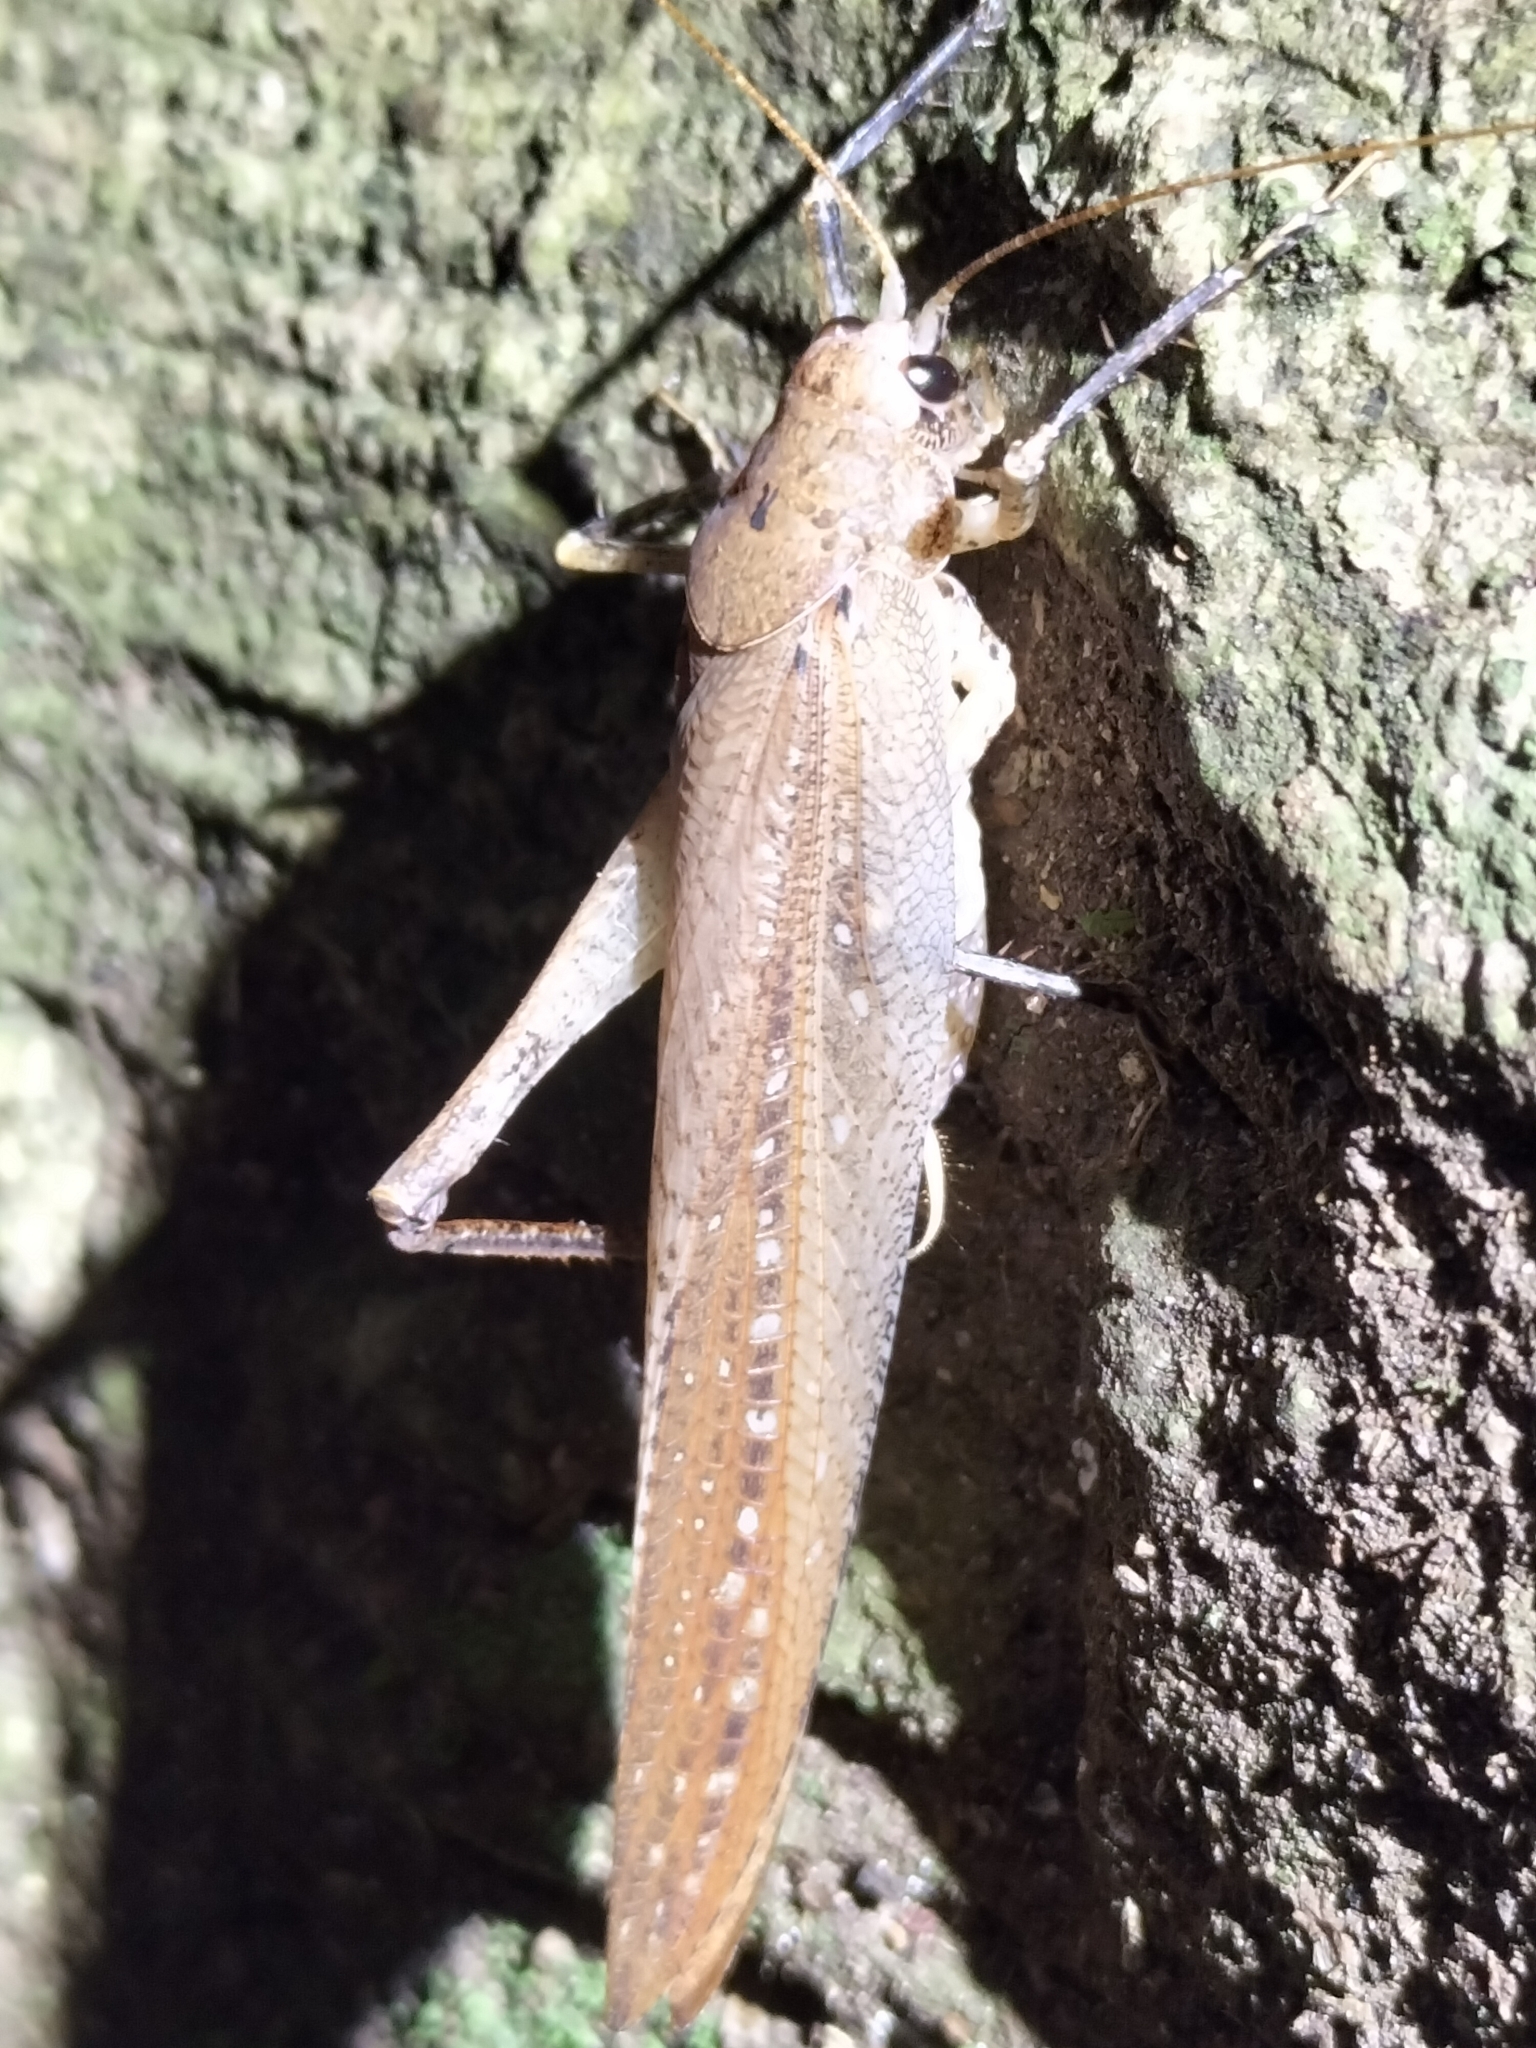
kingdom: Animalia
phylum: Arthropoda
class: Insecta
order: Orthoptera
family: Anostostomatidae
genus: Transaevum
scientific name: Transaevum laudatum
